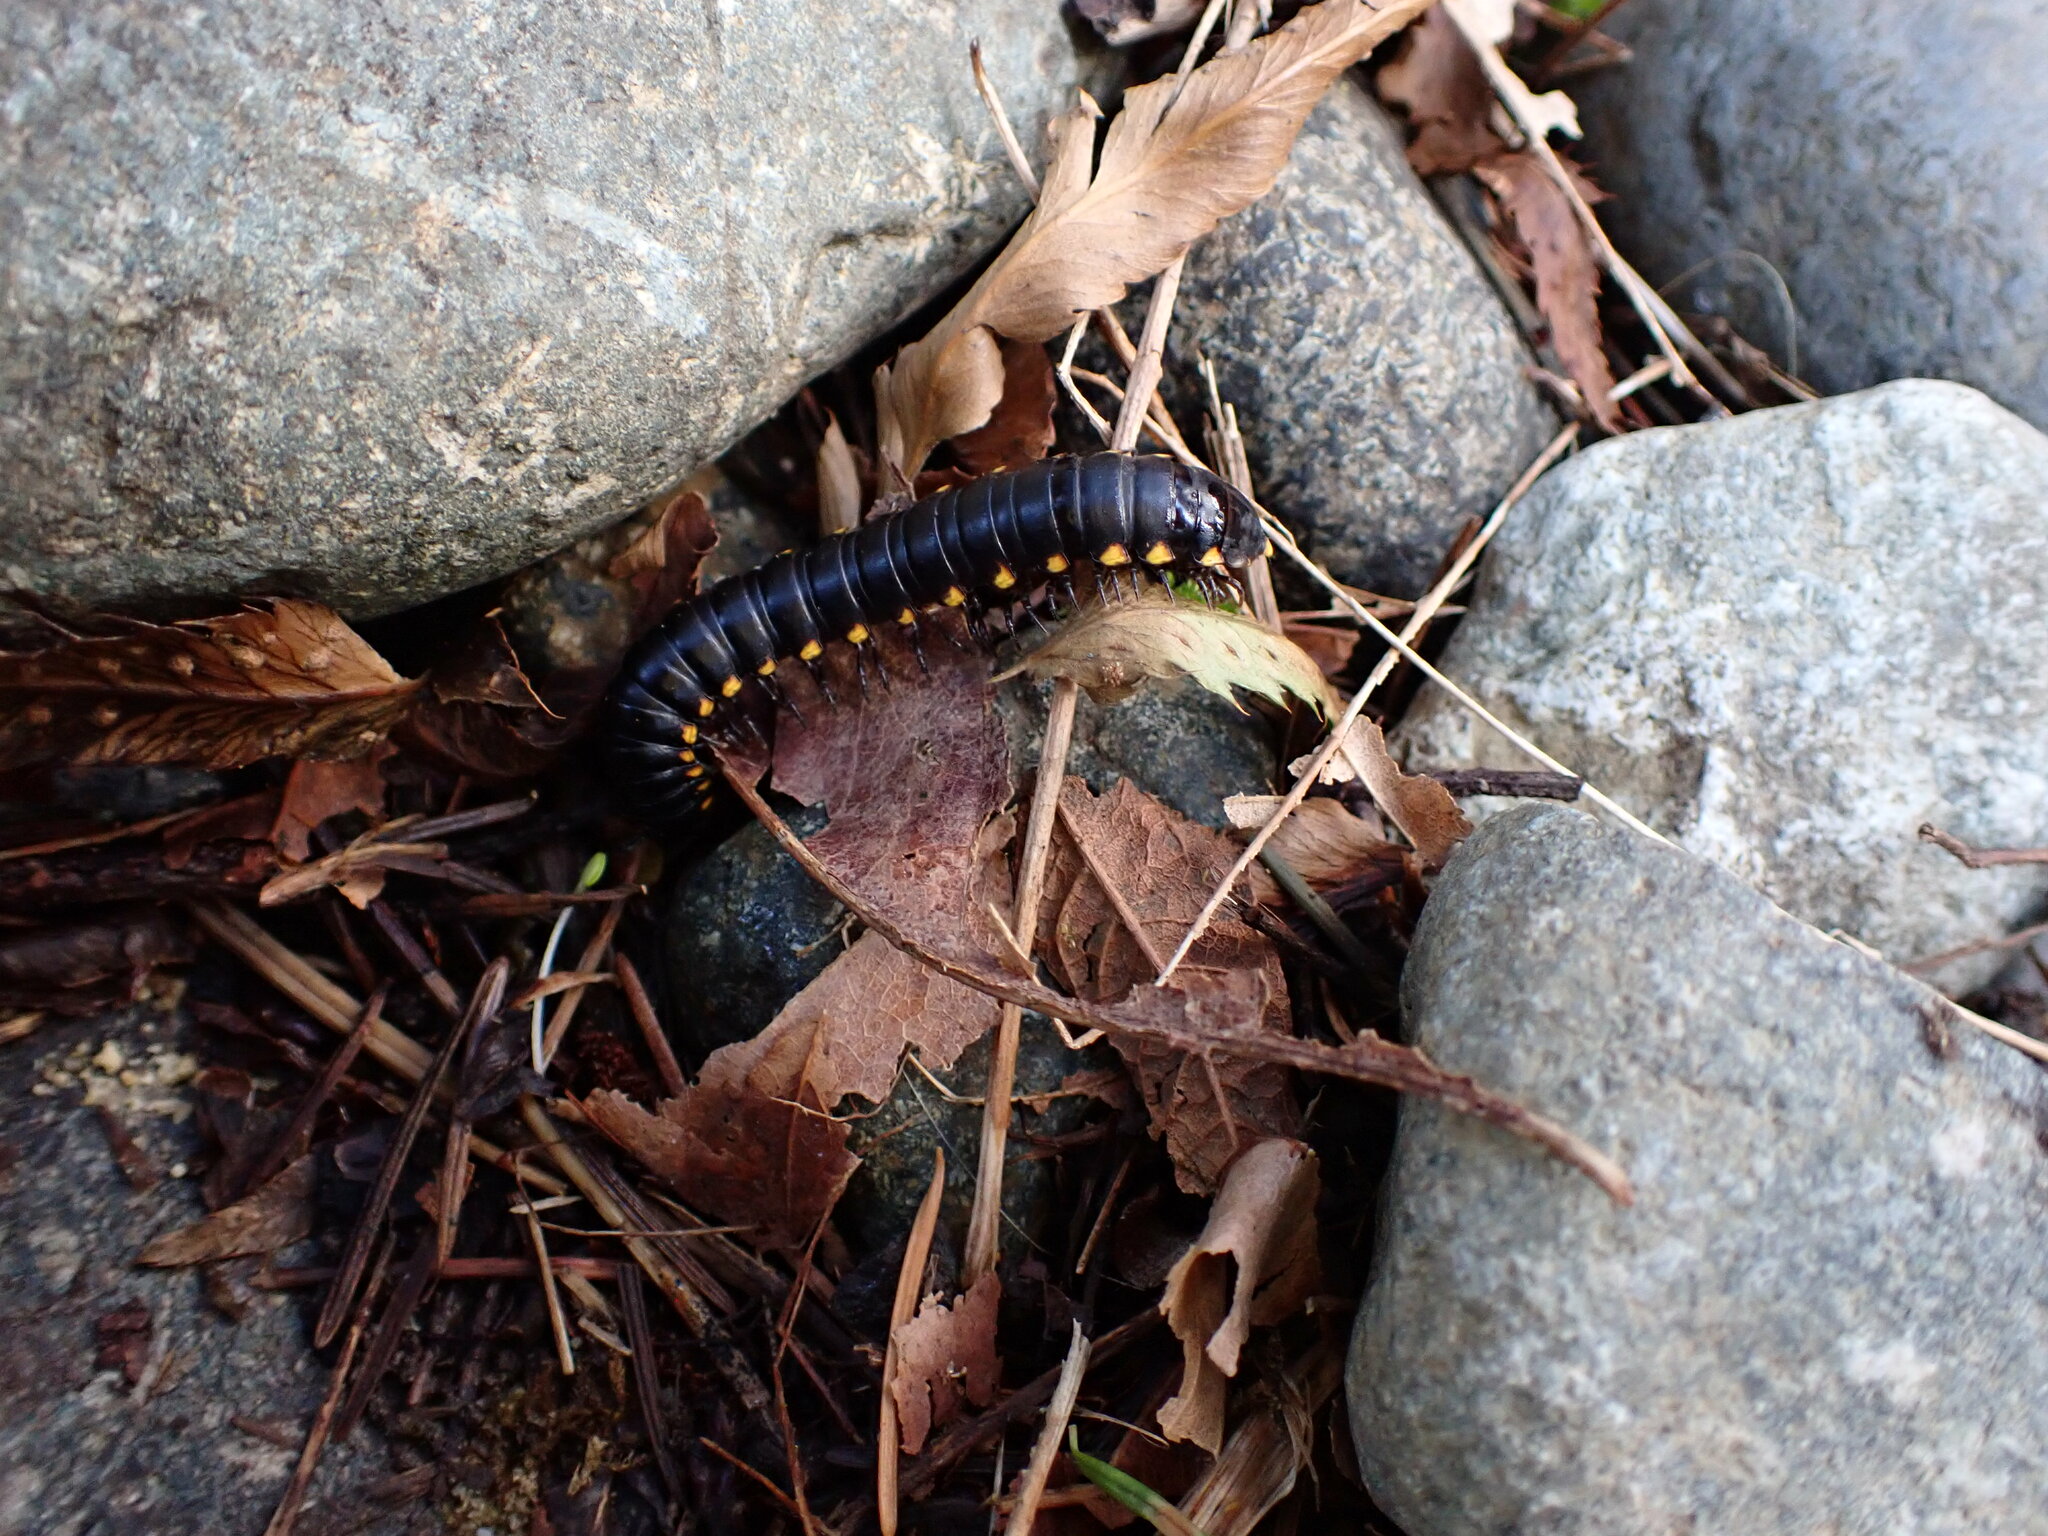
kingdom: Animalia
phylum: Arthropoda
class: Diplopoda
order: Polydesmida
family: Xystodesmidae
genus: Harpaphe
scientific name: Harpaphe haydeniana
